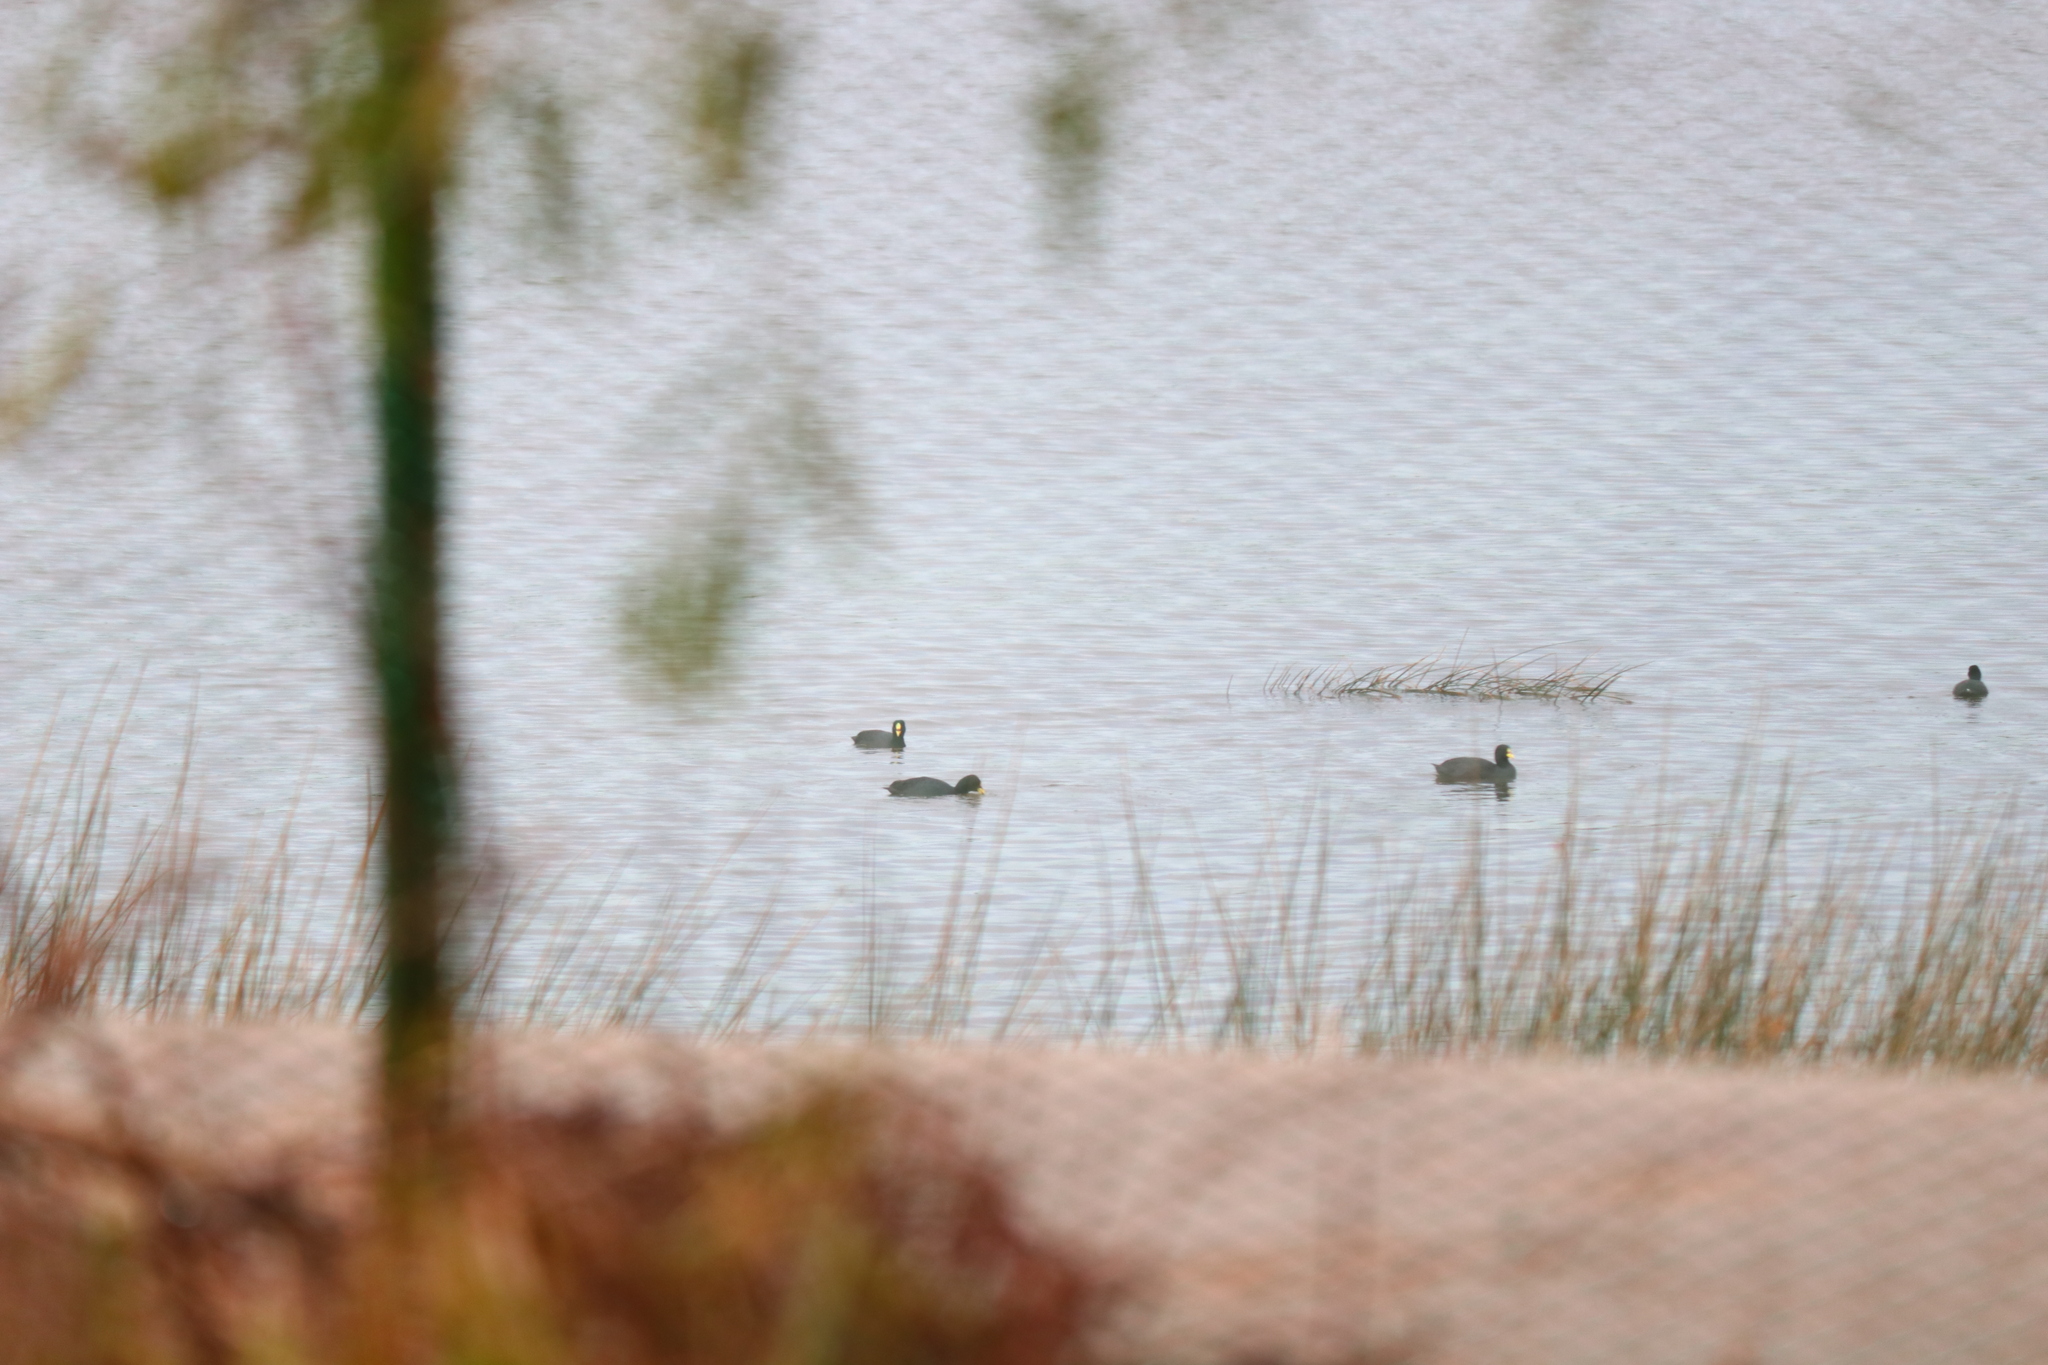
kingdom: Animalia
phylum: Chordata
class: Aves
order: Gruiformes
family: Rallidae
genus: Fulica
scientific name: Fulica armillata
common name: Red-gartered coot
